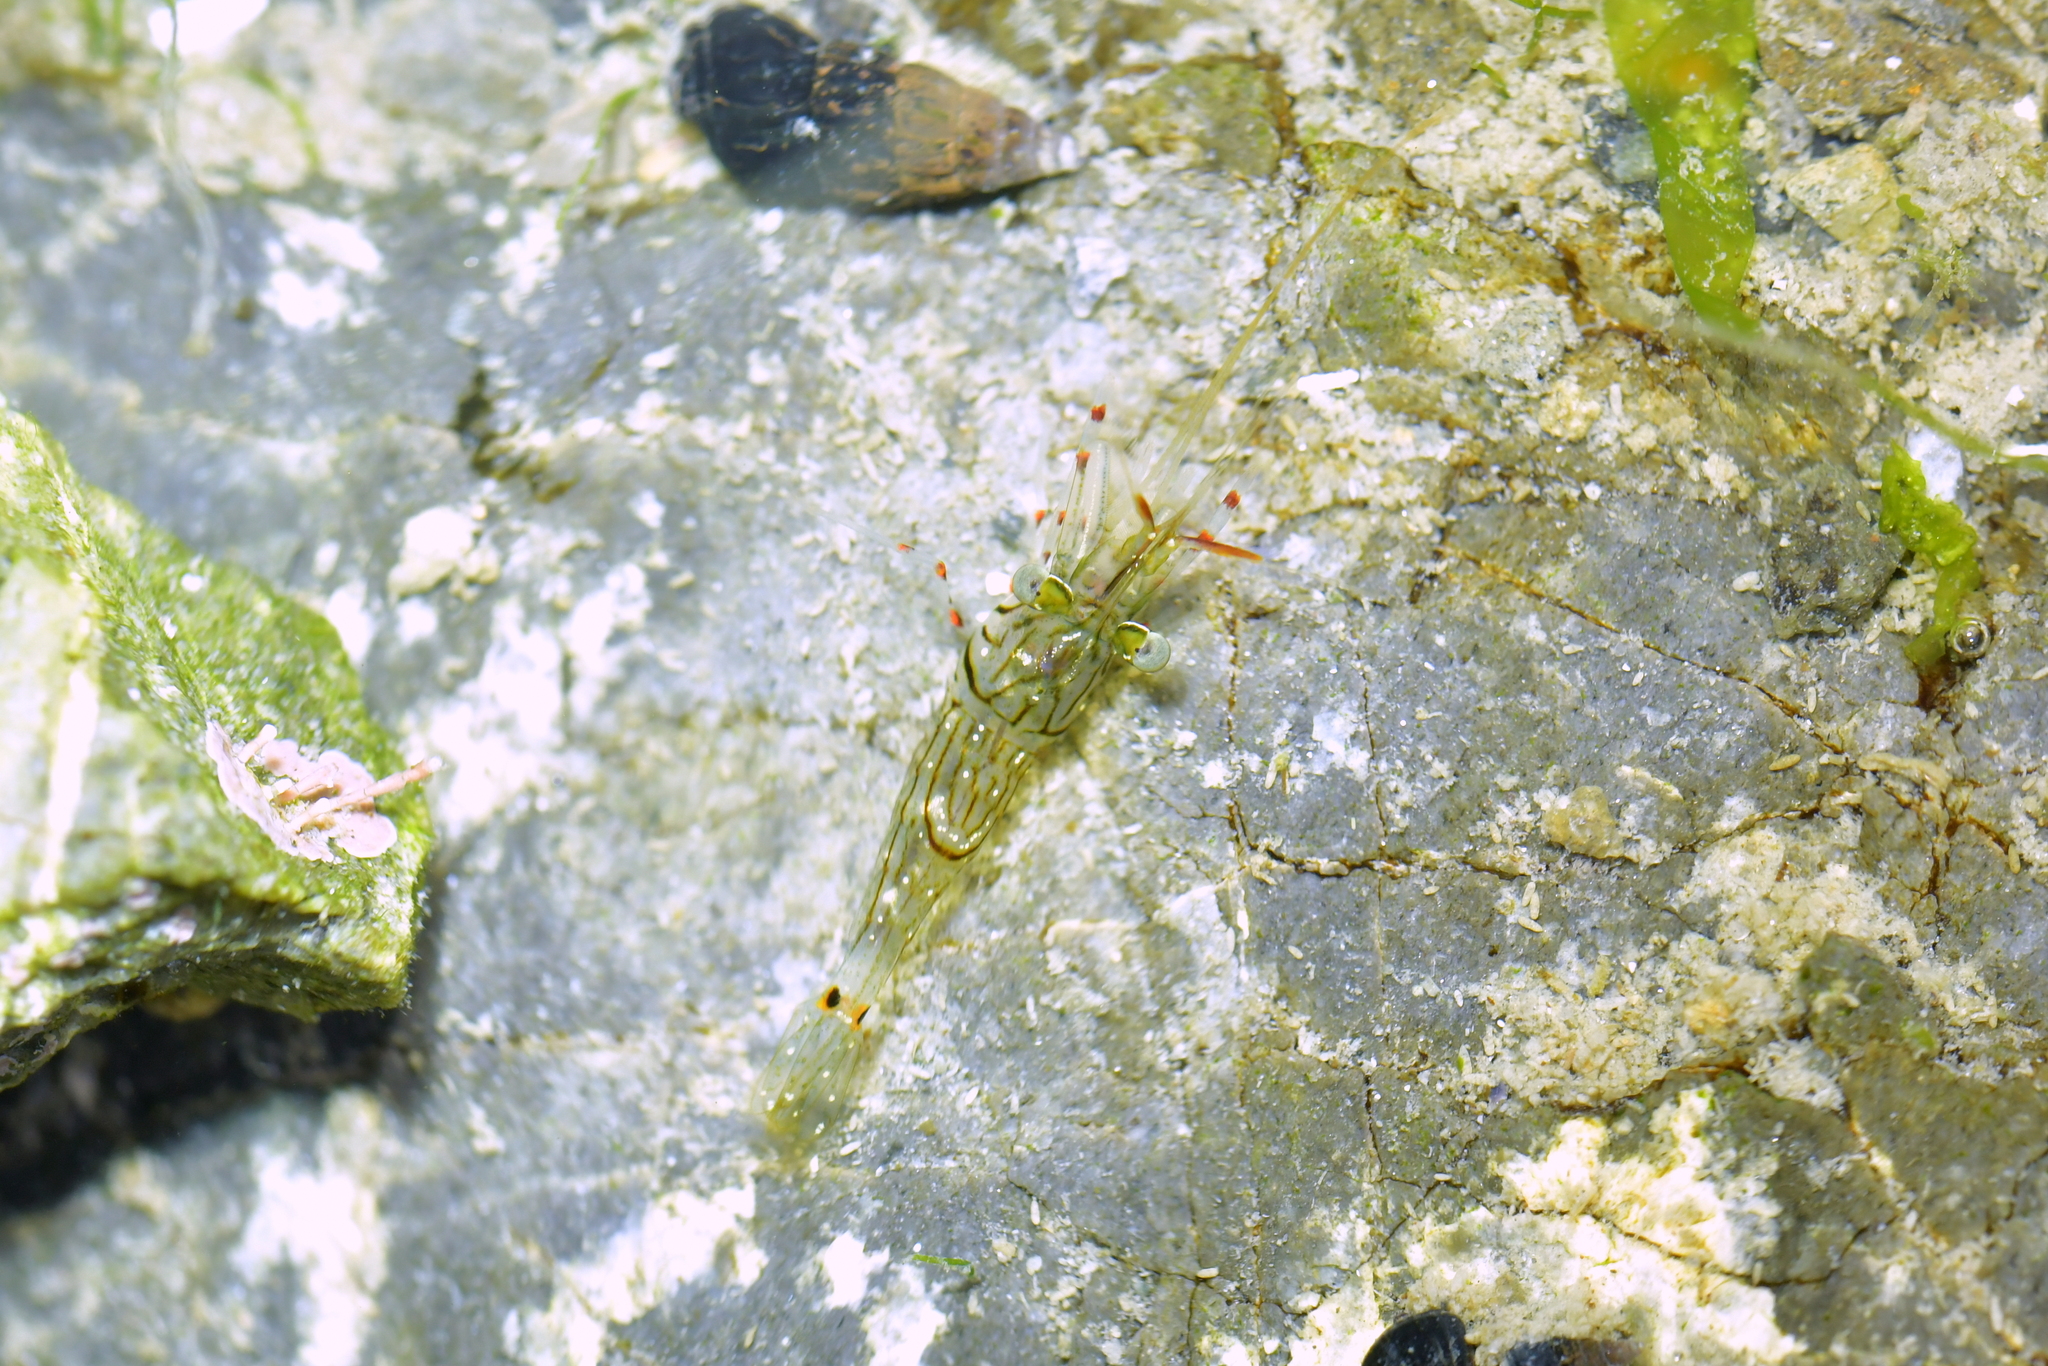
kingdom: Animalia
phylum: Arthropoda
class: Malacostraca
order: Decapoda
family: Palaemonidae
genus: Palaemon
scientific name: Palaemon affinis
